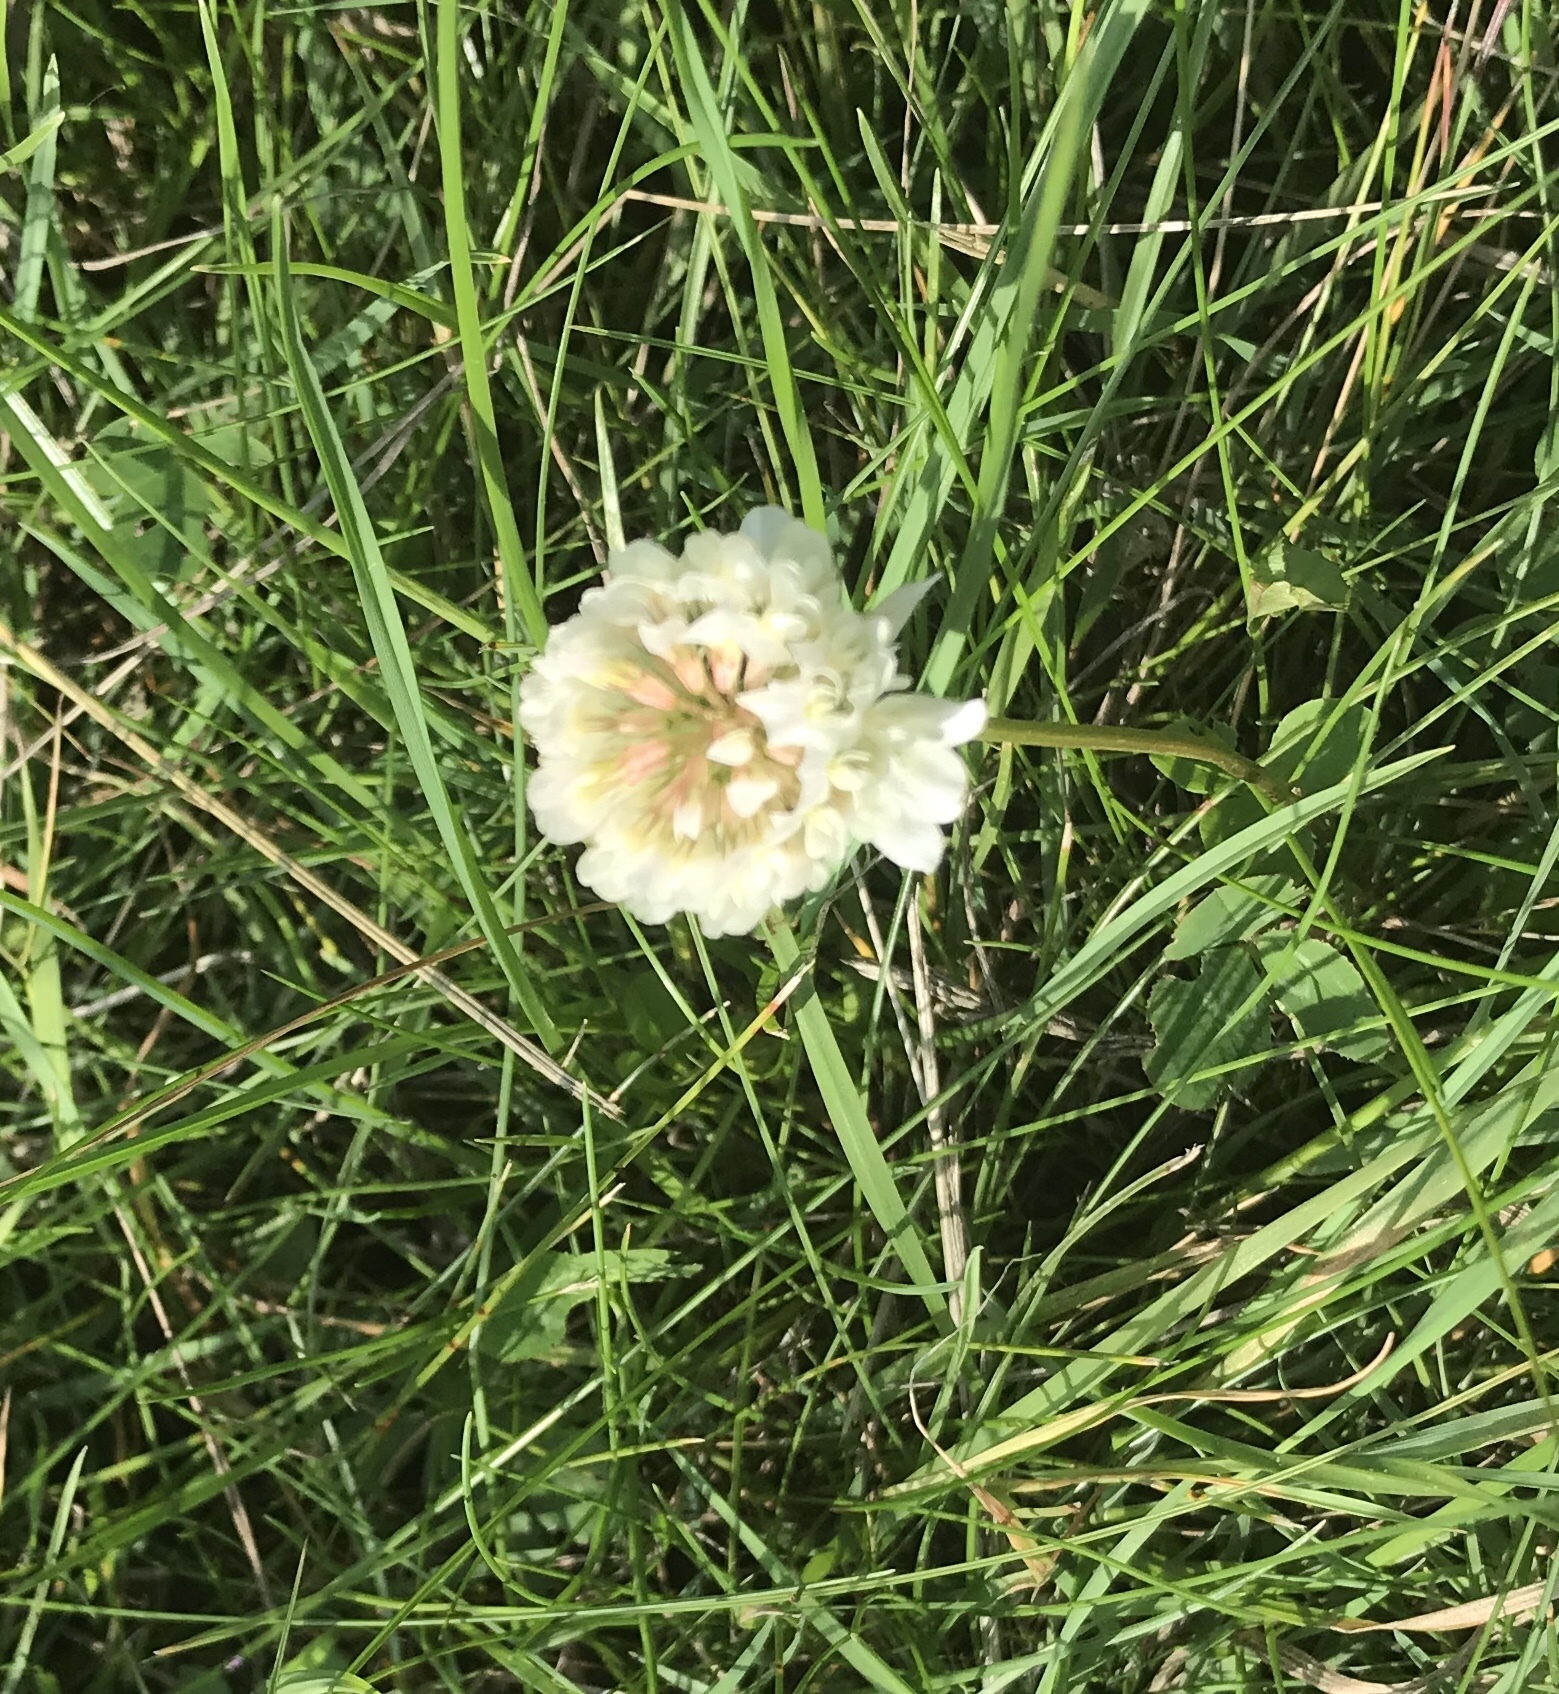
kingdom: Plantae
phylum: Tracheophyta
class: Magnoliopsida
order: Fabales
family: Fabaceae
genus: Trifolium
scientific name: Trifolium repens
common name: White clover
